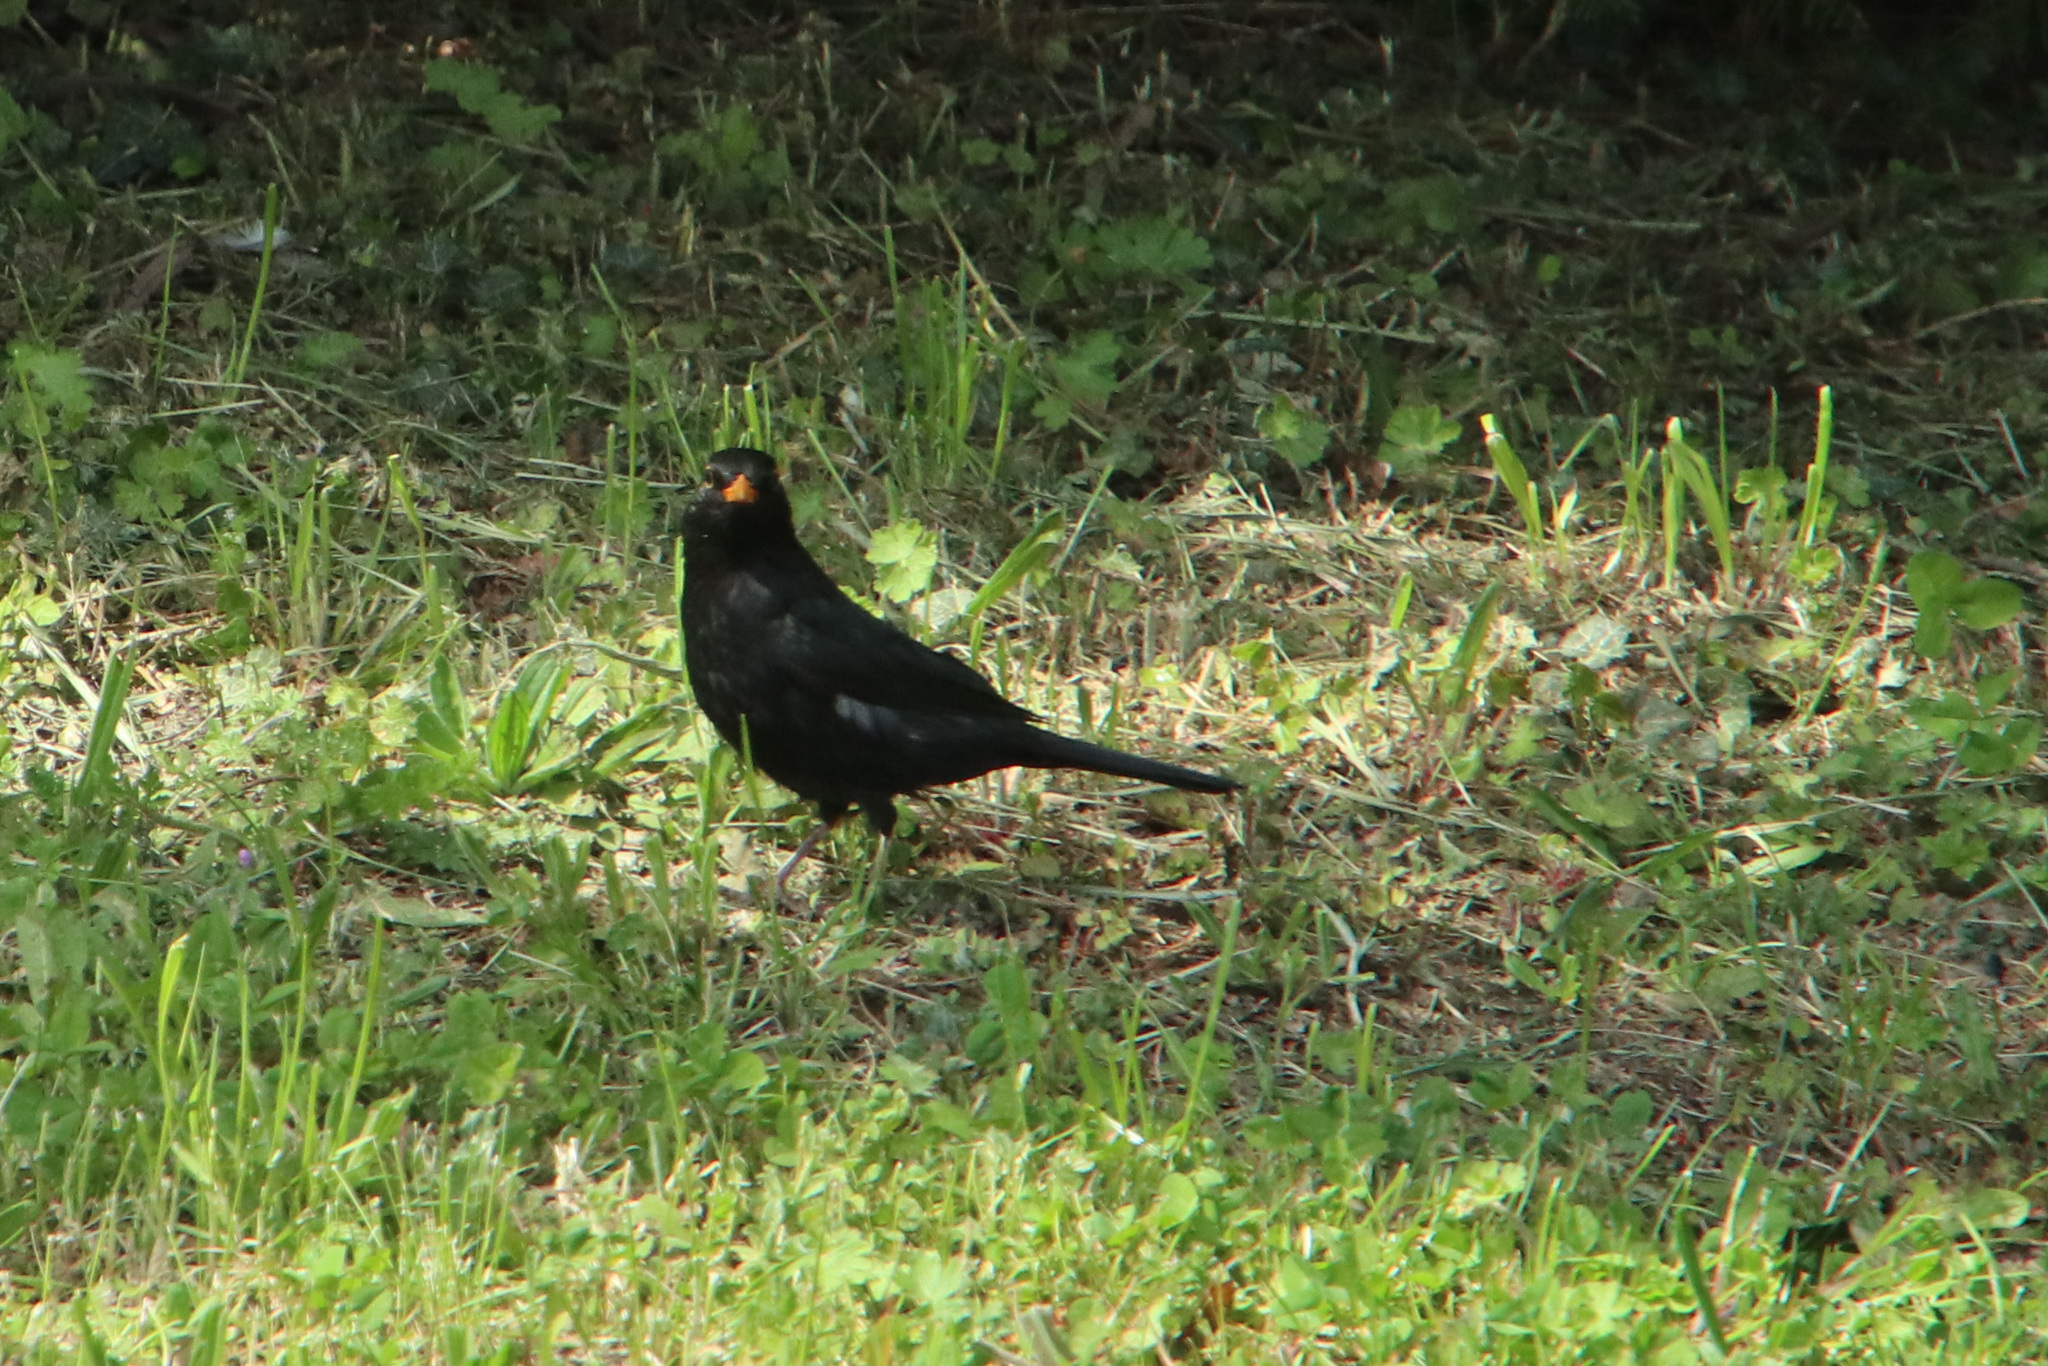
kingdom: Animalia
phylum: Chordata
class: Aves
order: Passeriformes
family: Turdidae
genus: Turdus
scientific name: Turdus merula
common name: Common blackbird
